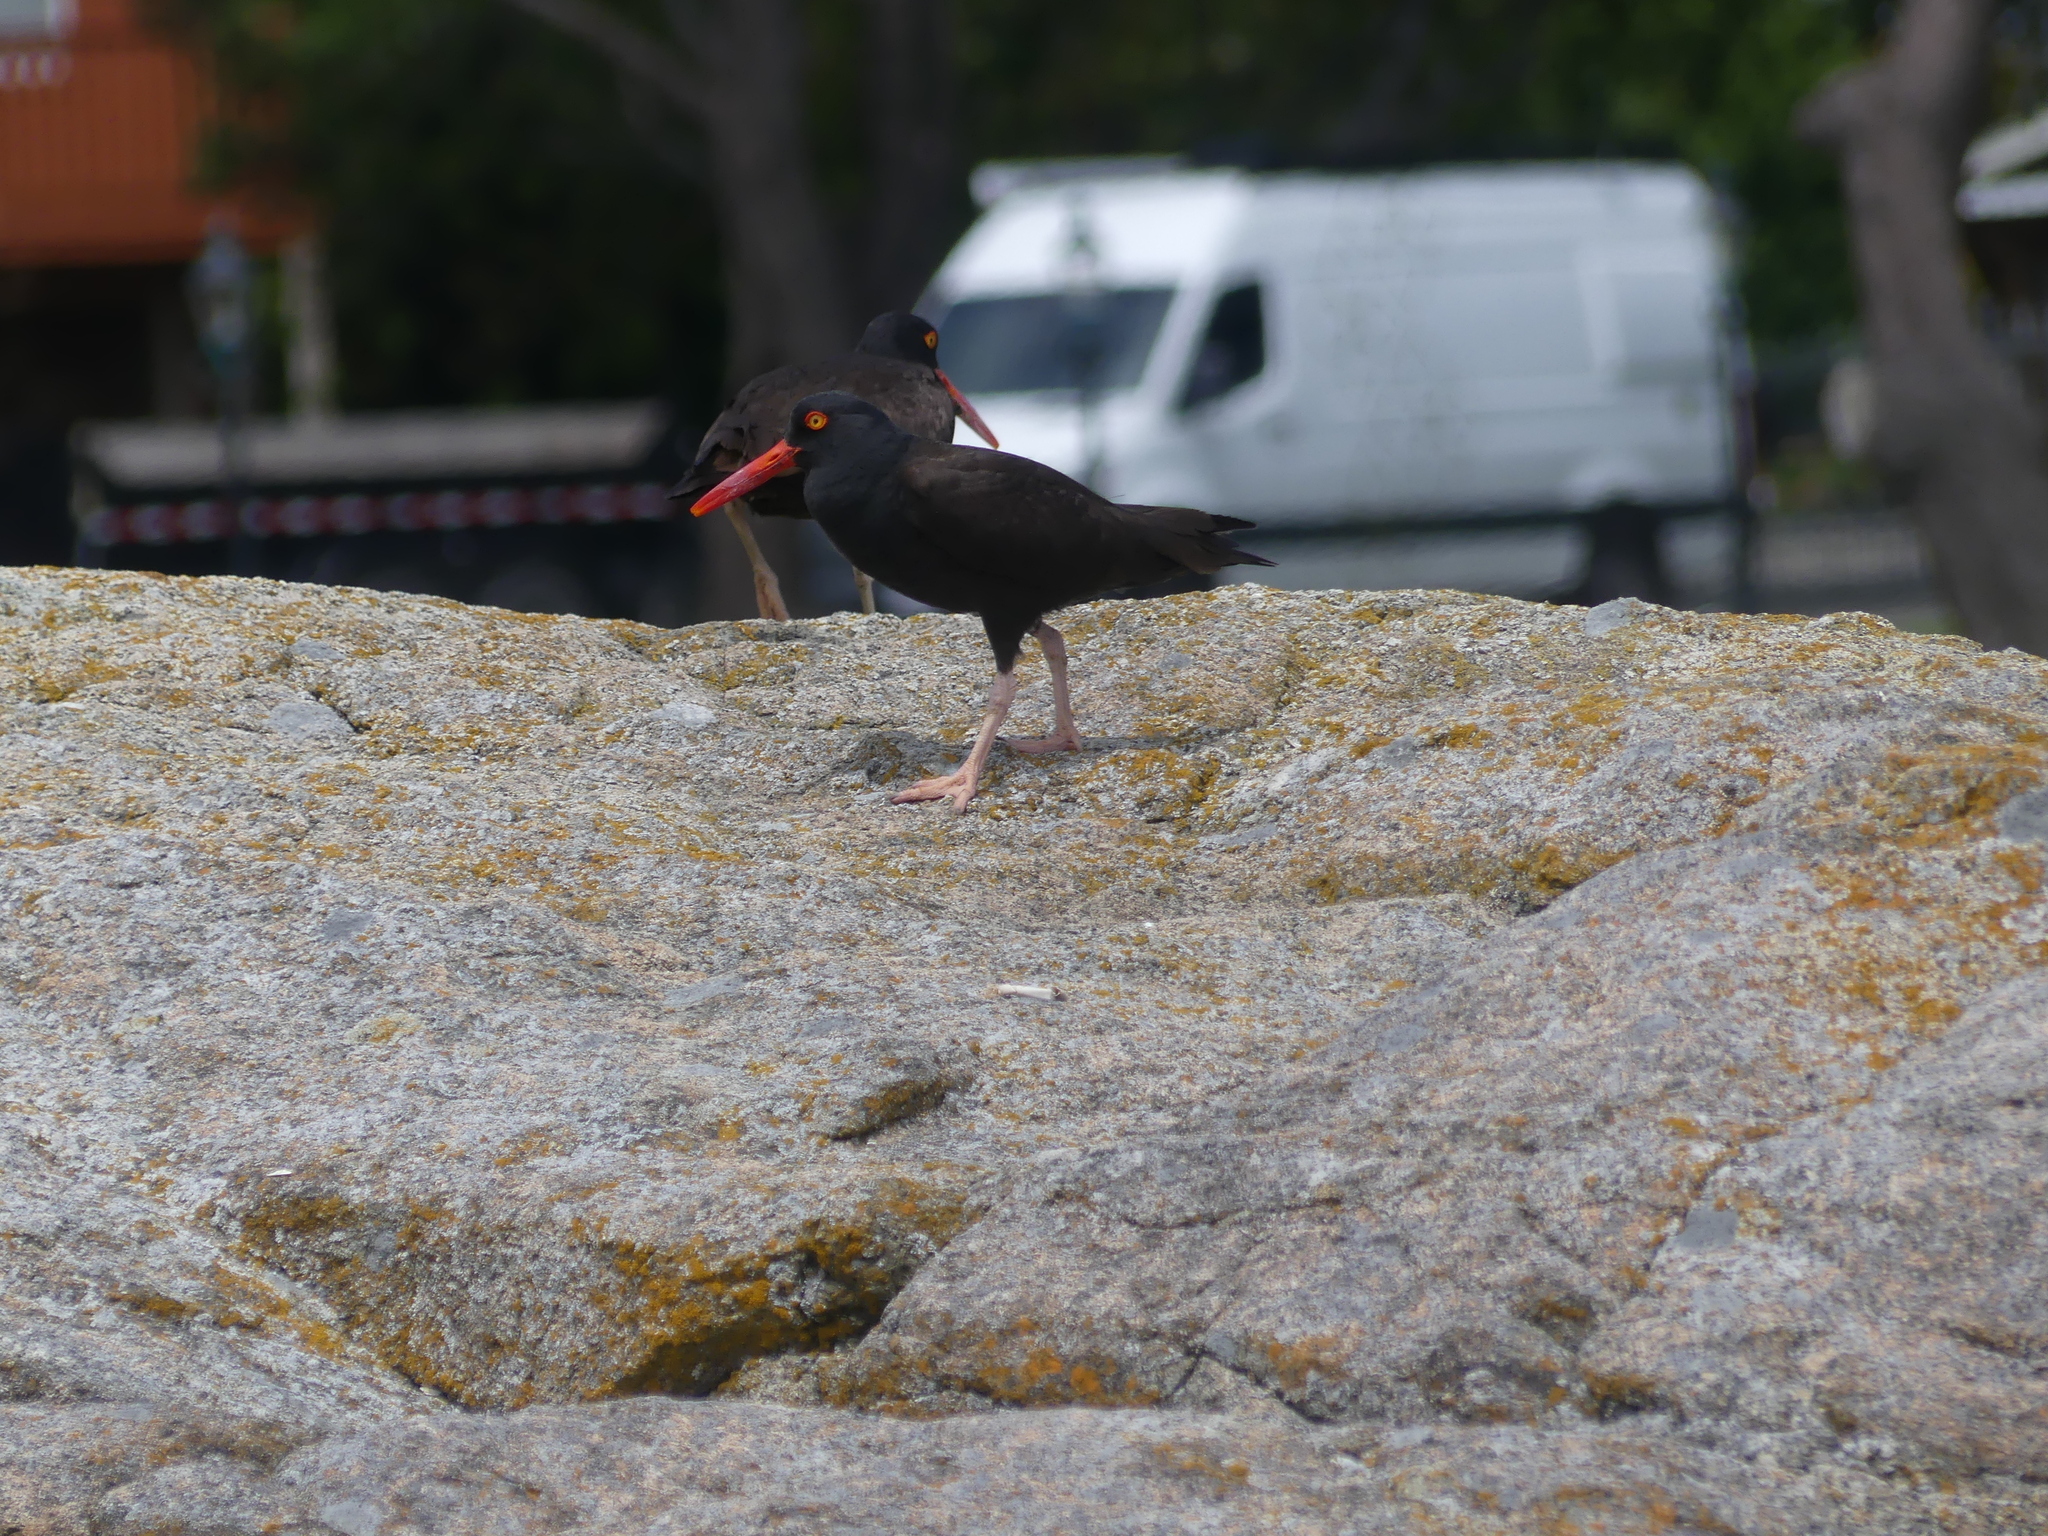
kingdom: Animalia
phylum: Chordata
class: Aves
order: Charadriiformes
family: Haematopodidae
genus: Haematopus
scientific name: Haematopus bachmani
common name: Black oystercatcher
